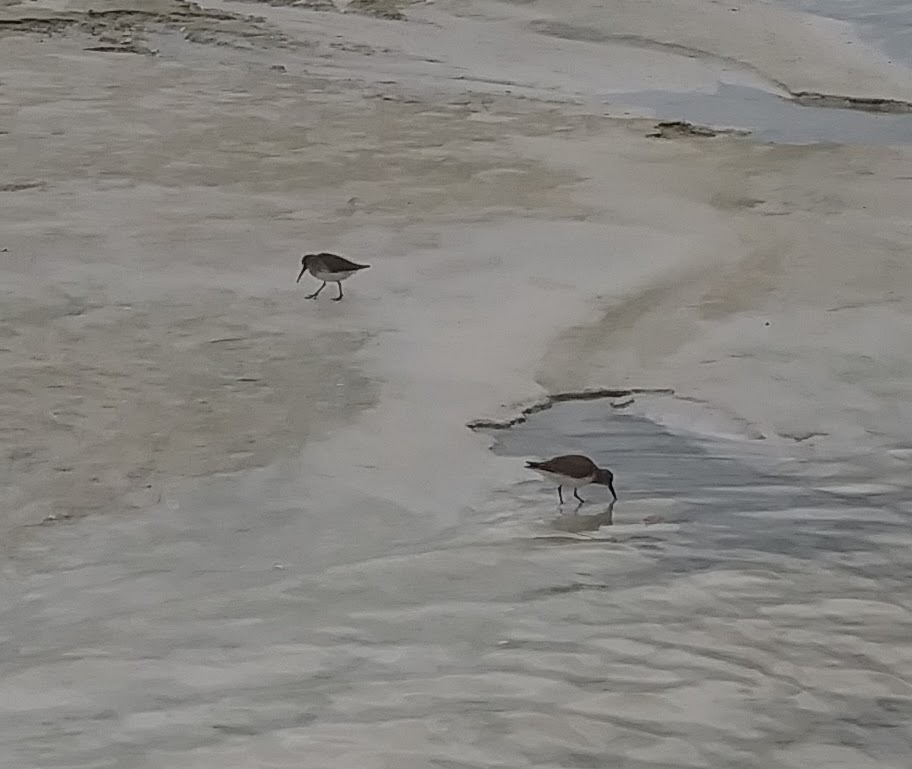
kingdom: Animalia
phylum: Chordata
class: Aves
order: Charadriiformes
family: Scolopacidae
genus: Calidris
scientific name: Calidris alpina
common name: Dunlin
